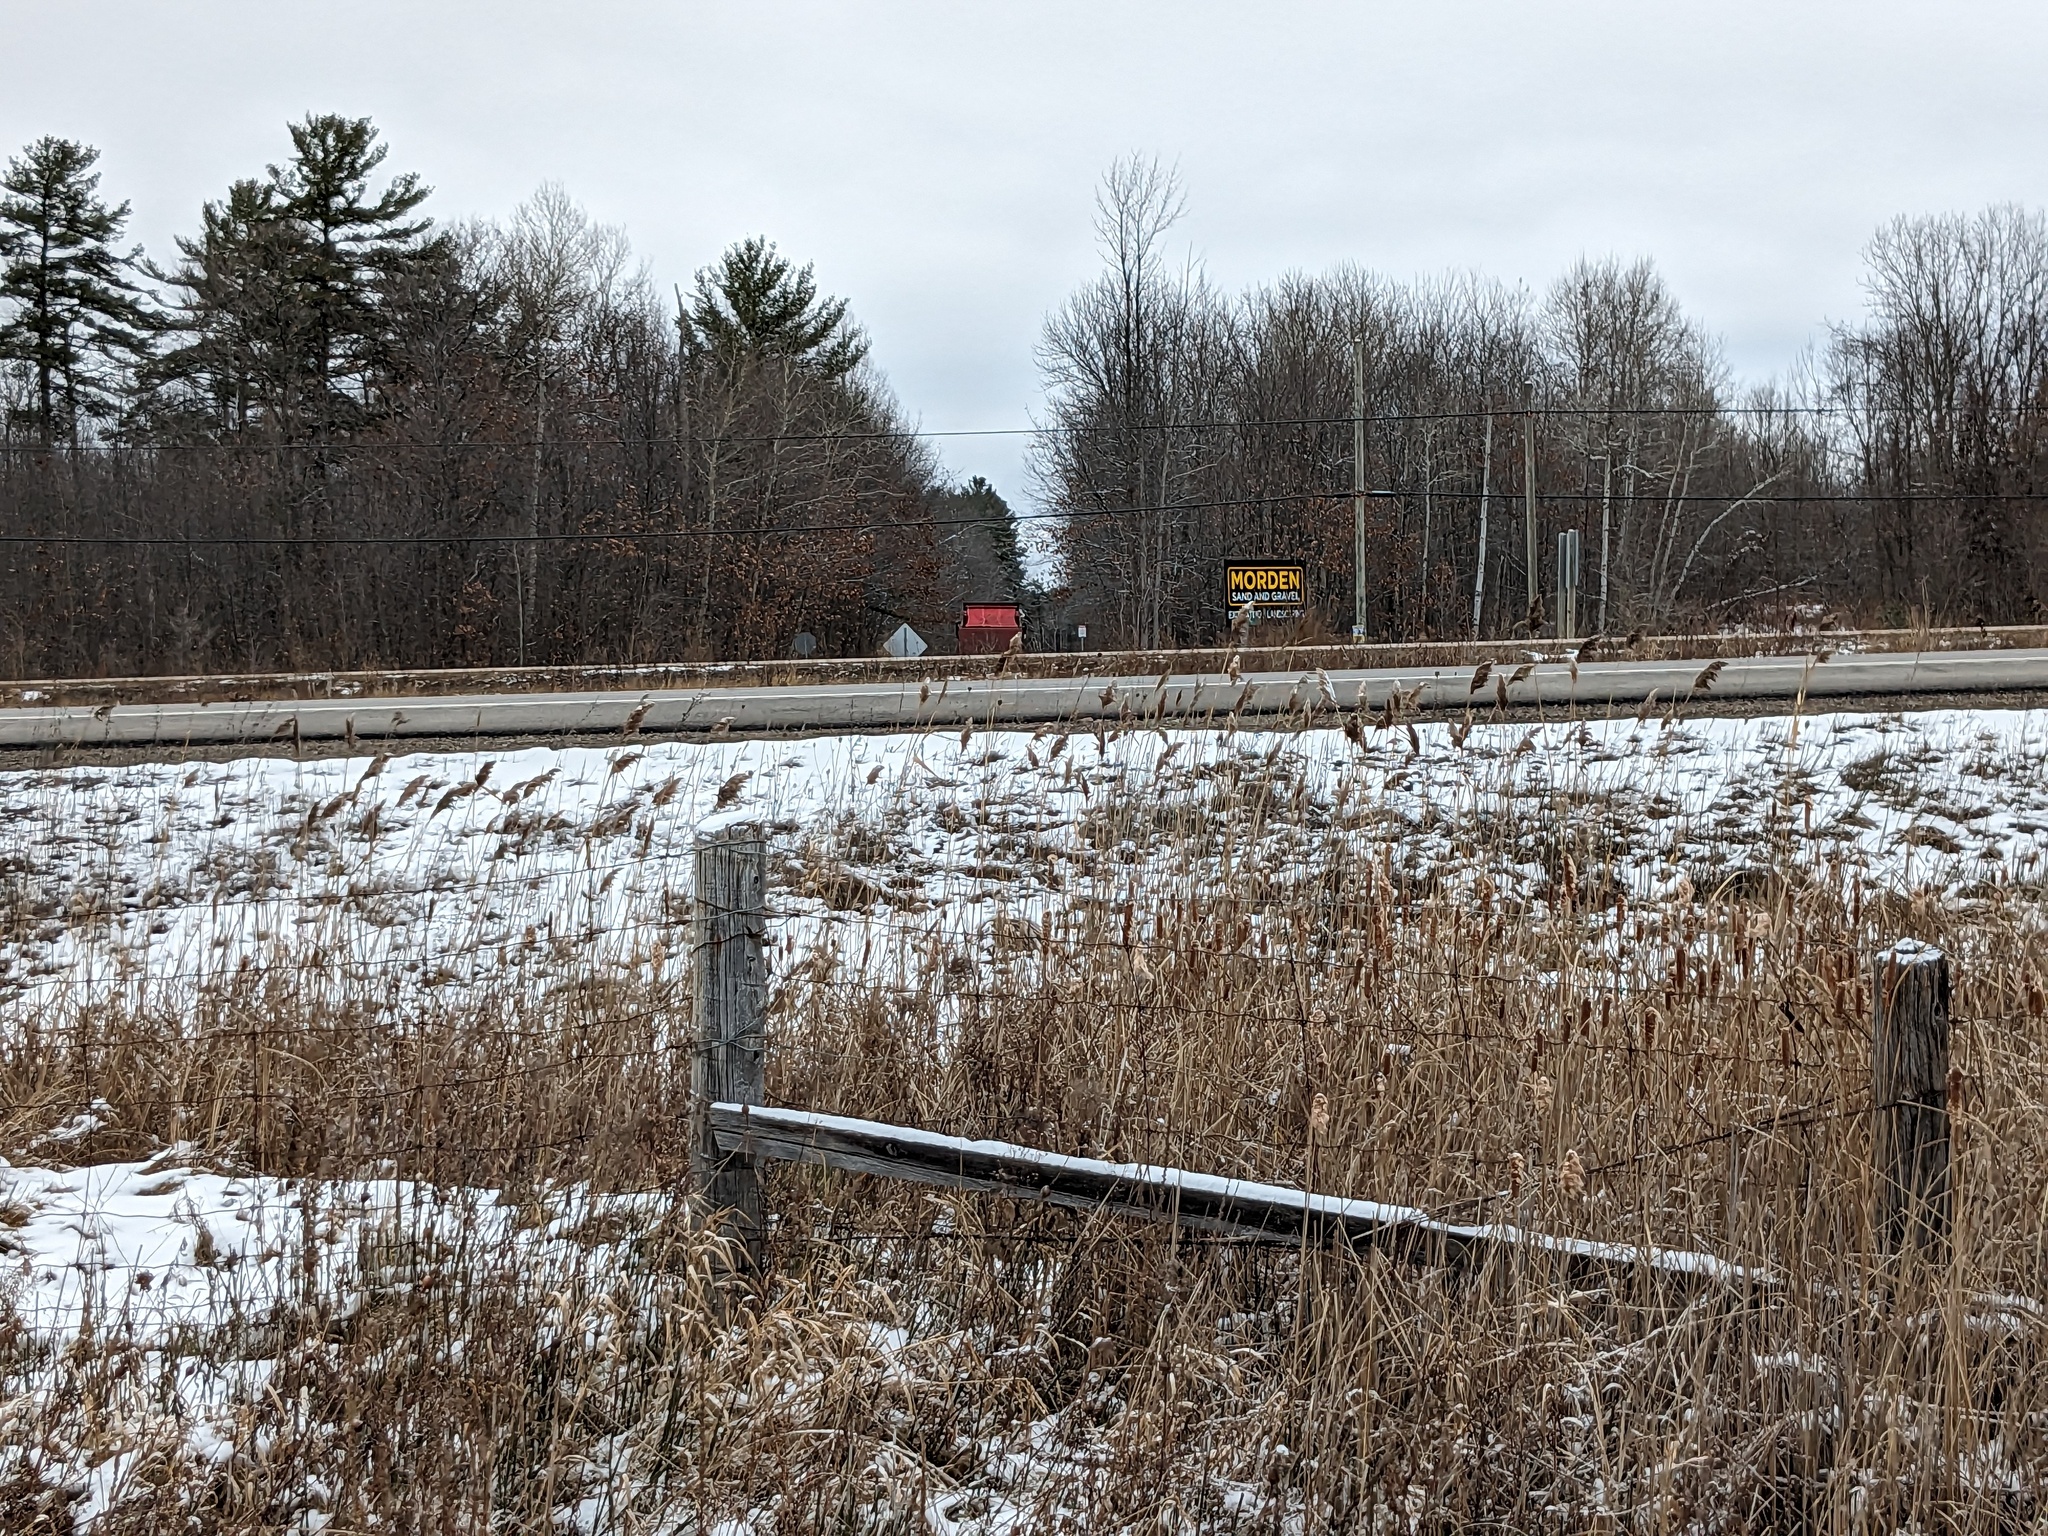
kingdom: Plantae
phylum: Tracheophyta
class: Liliopsida
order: Poales
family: Poaceae
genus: Phragmites
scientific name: Phragmites australis
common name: Common reed
